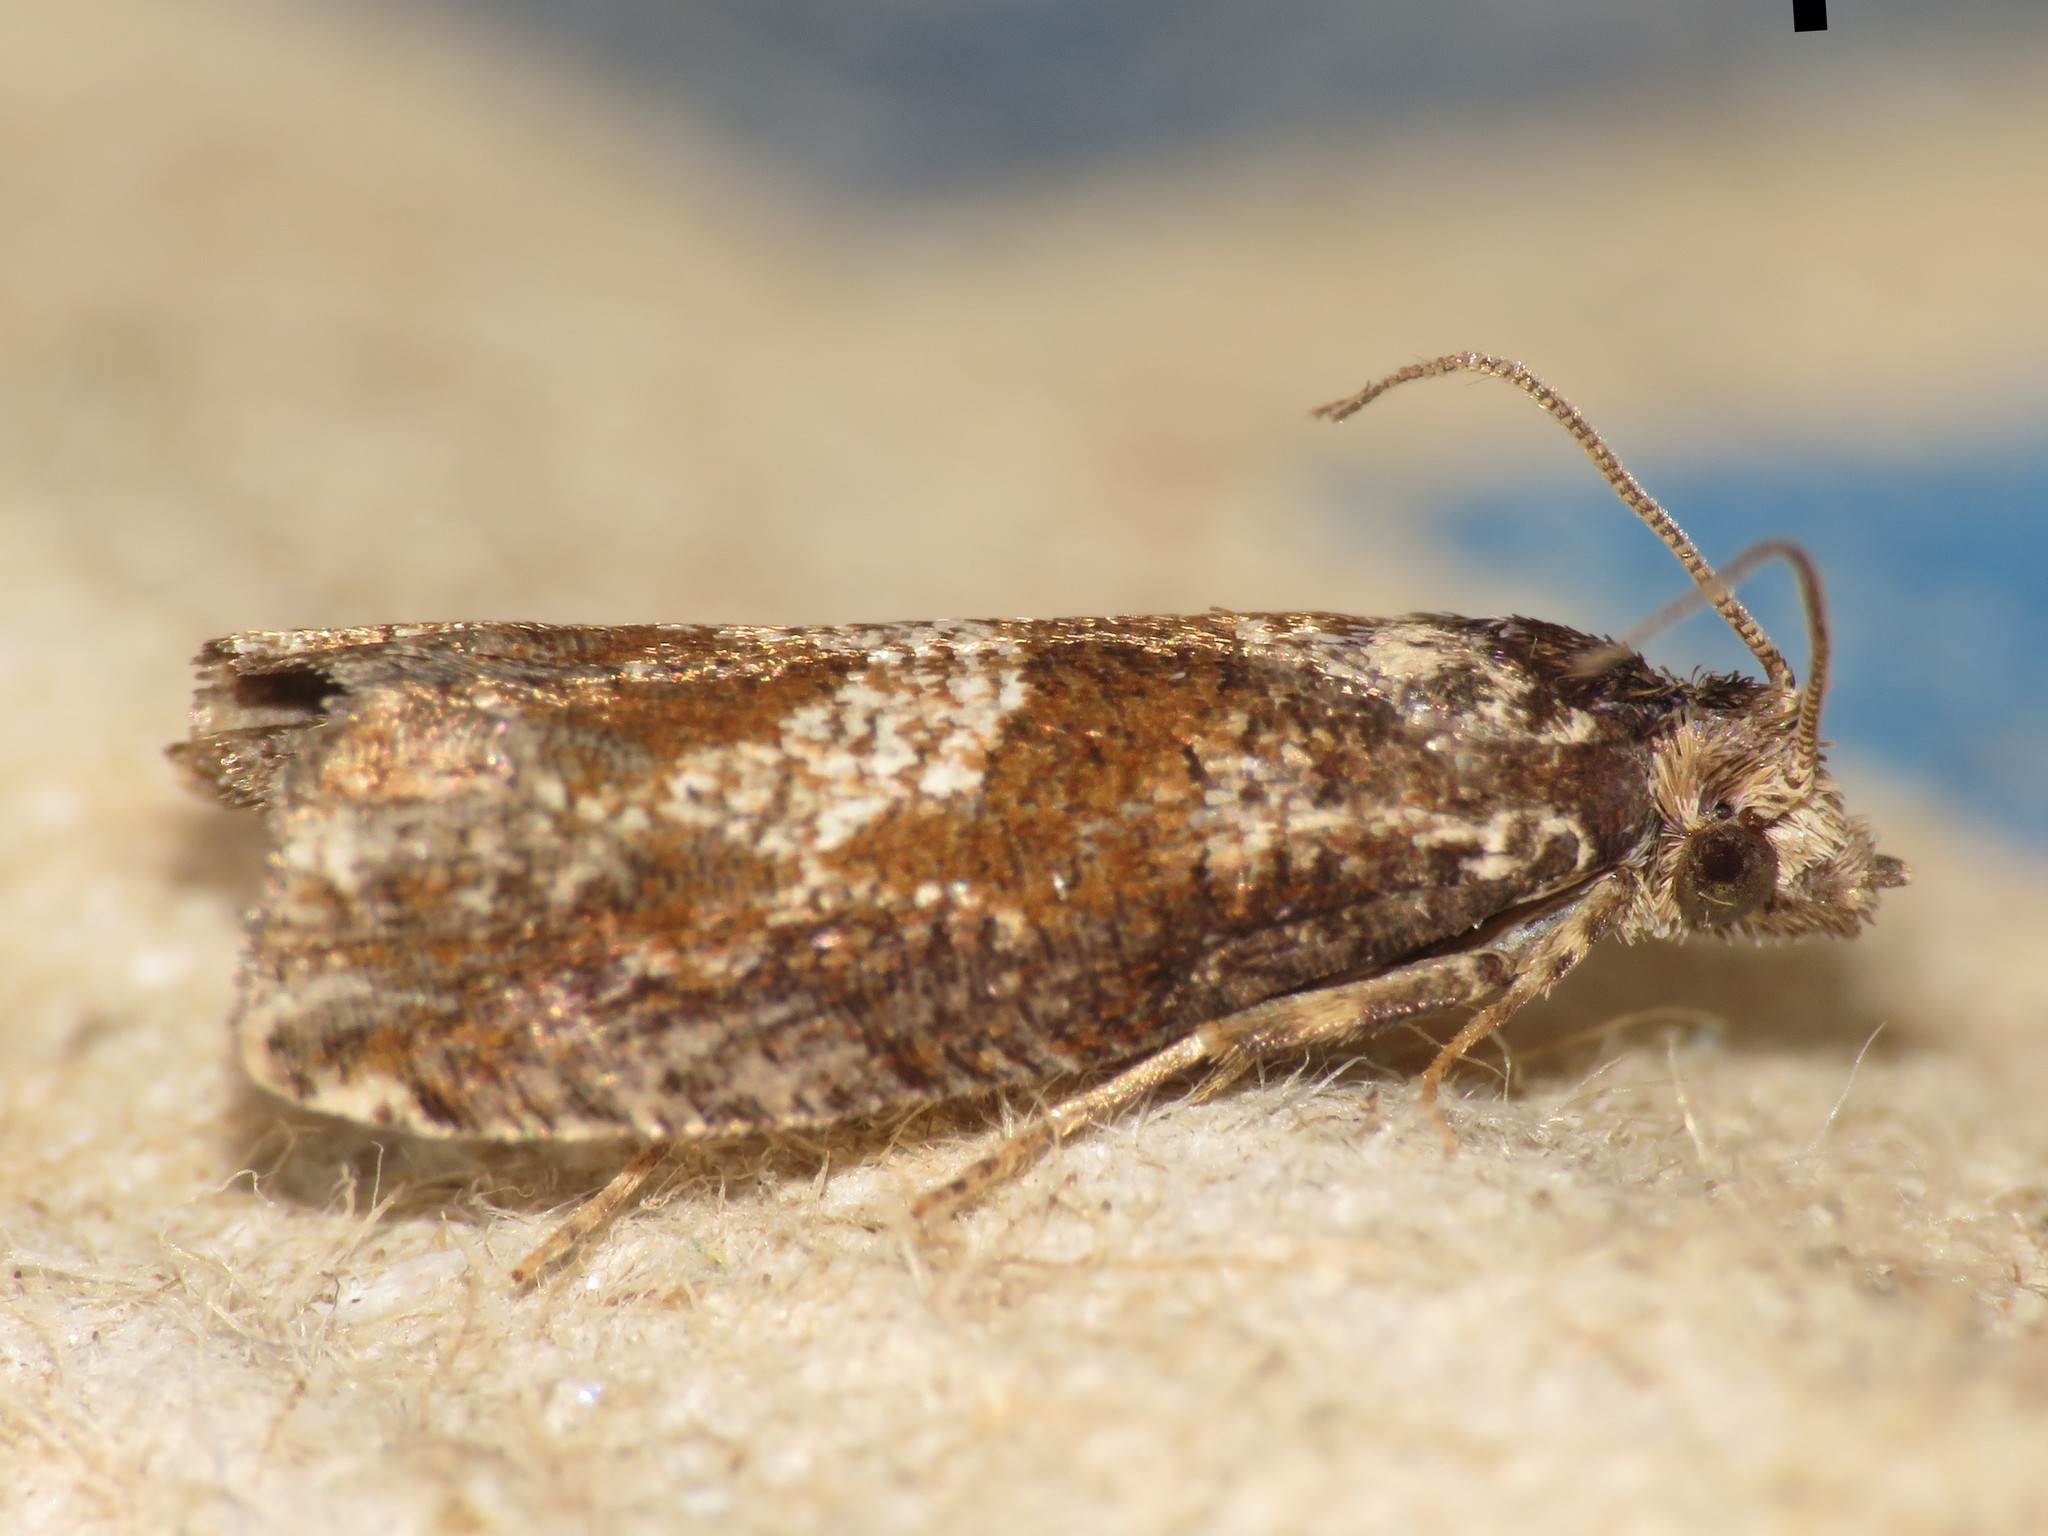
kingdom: Animalia
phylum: Arthropoda
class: Insecta
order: Lepidoptera
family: Tortricidae
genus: Sonia
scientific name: Sonia canadana
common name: Canadian sonia moth
